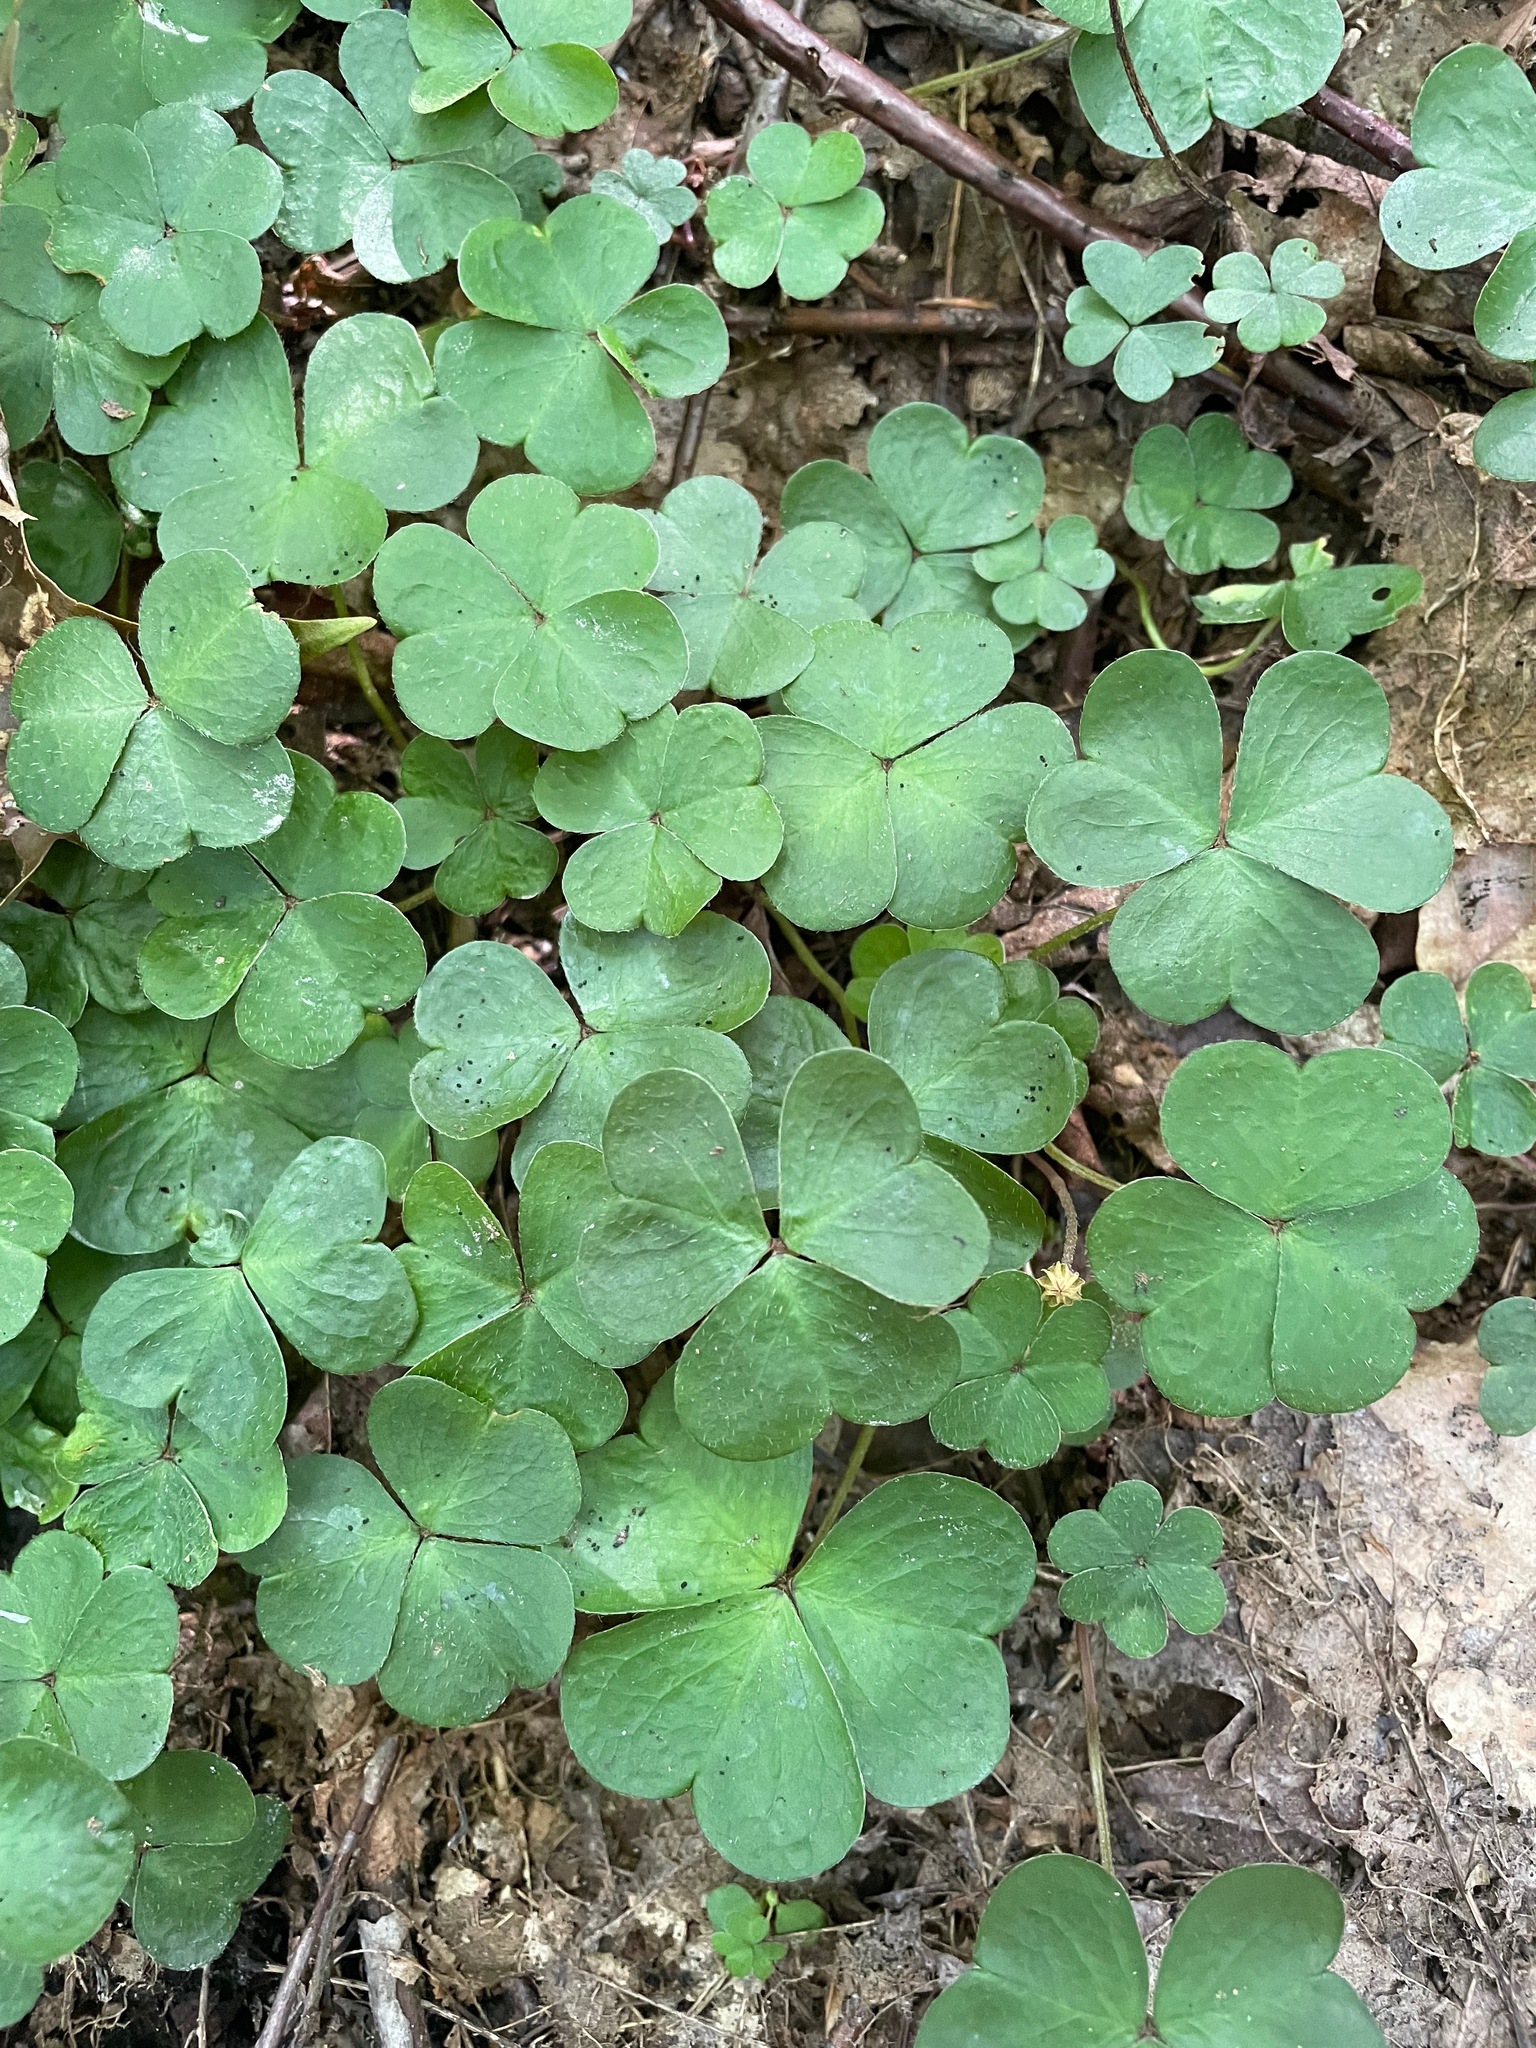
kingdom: Plantae
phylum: Tracheophyta
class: Magnoliopsida
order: Oxalidales
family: Oxalidaceae
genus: Oxalis
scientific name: Oxalis montana
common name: American wood-sorrel
